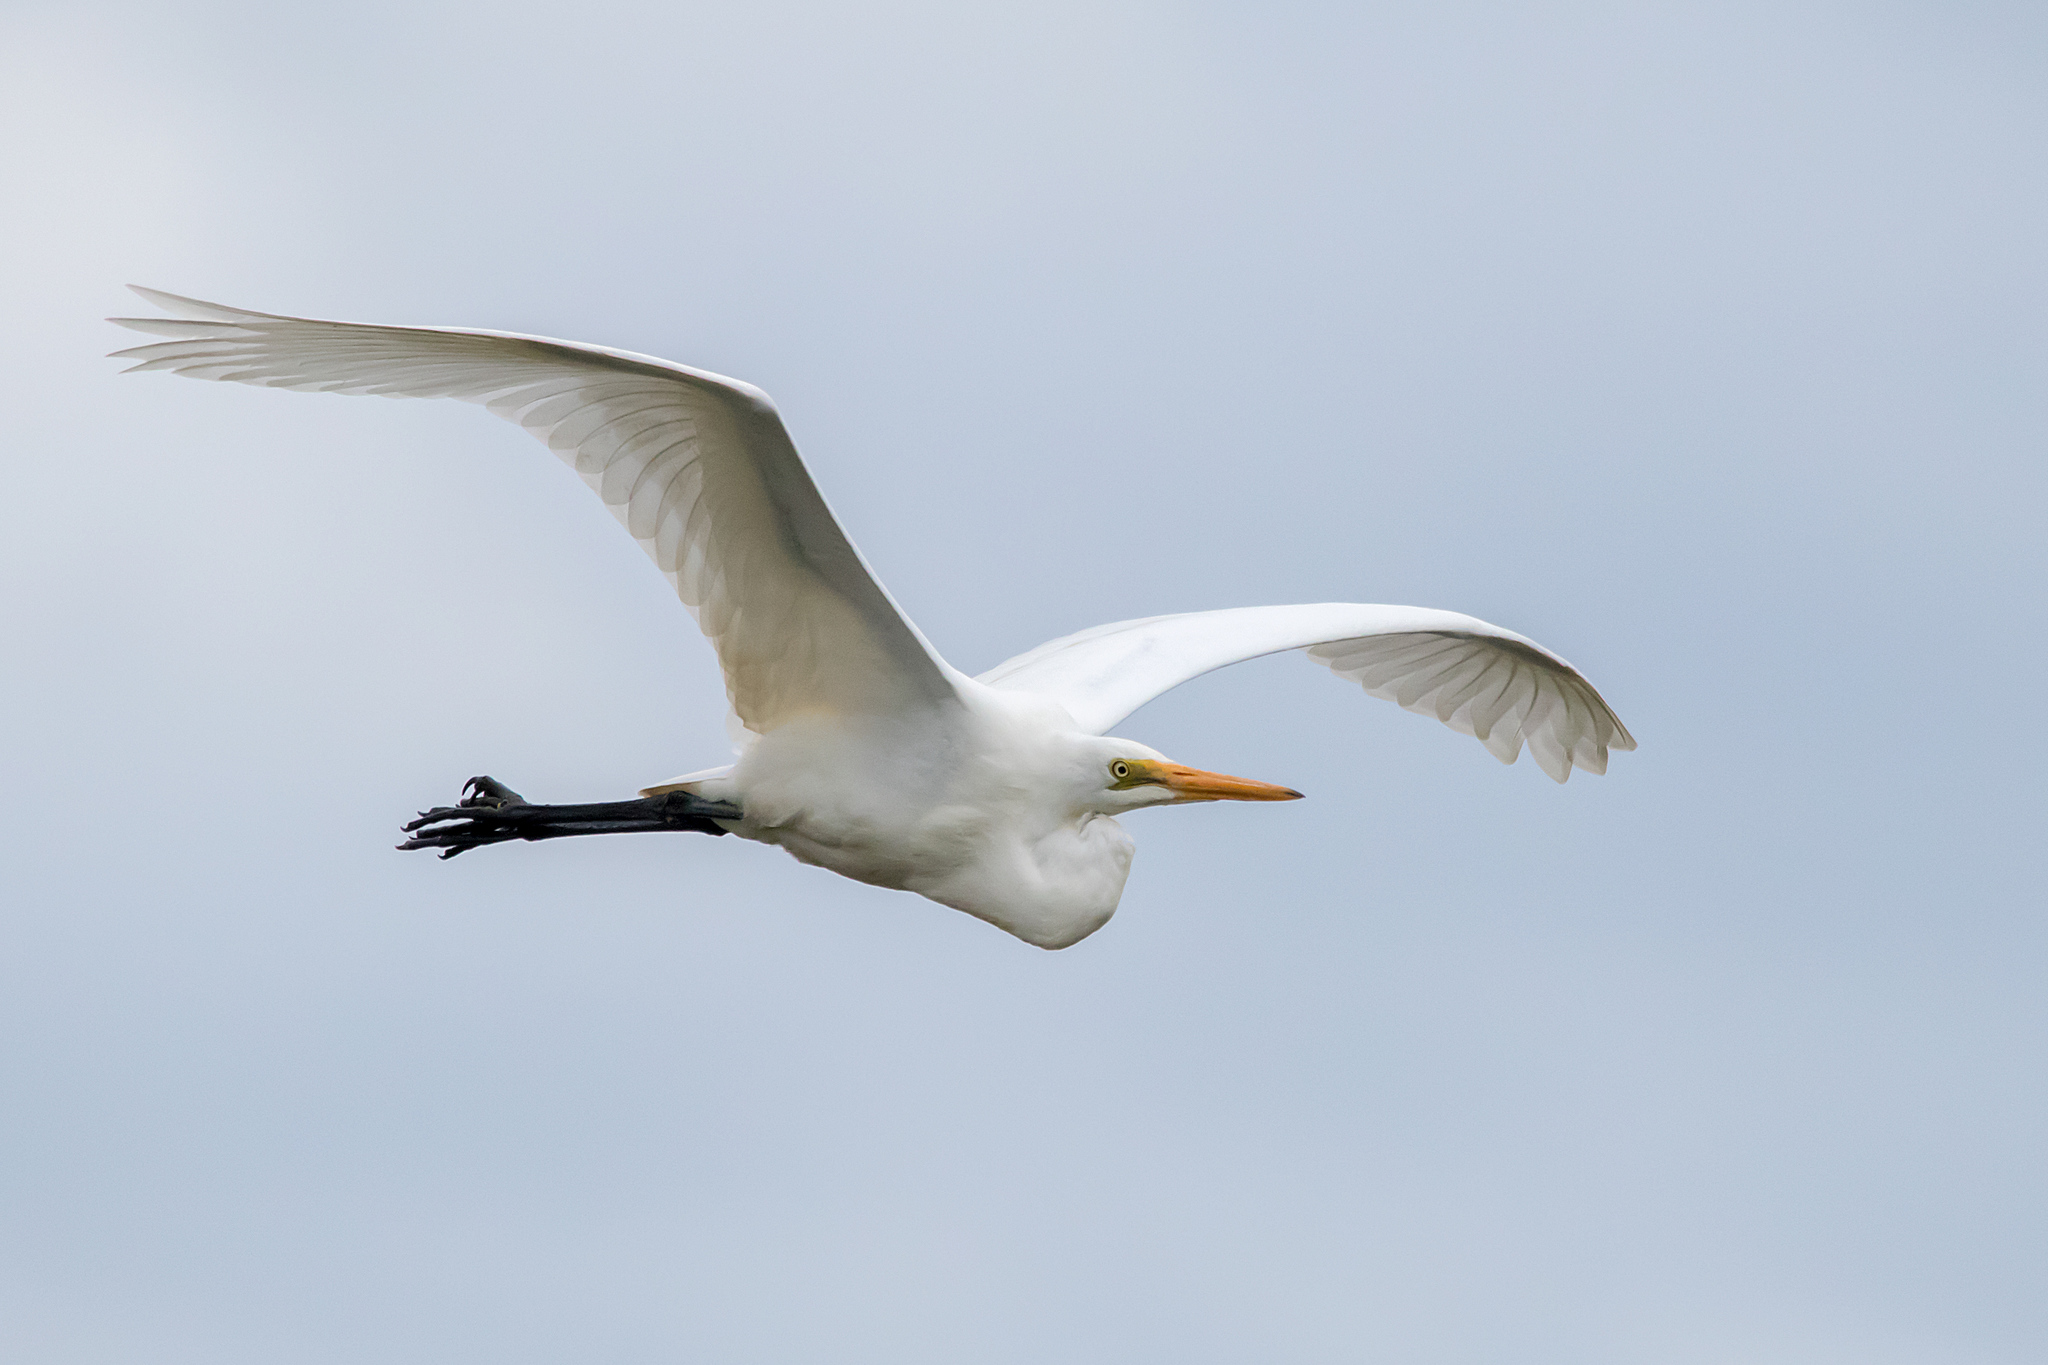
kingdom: Animalia
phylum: Chordata
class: Aves
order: Pelecaniformes
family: Ardeidae
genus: Ardea
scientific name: Ardea alba
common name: Great egret
